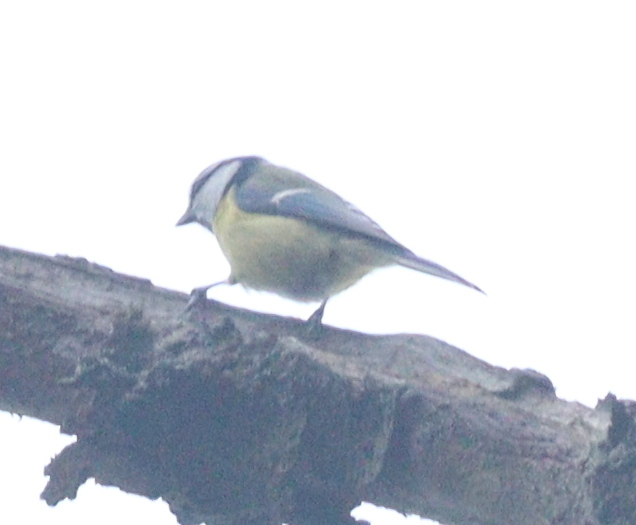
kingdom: Animalia
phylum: Chordata
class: Aves
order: Passeriformes
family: Paridae
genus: Cyanistes
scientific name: Cyanistes caeruleus
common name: Eurasian blue tit
